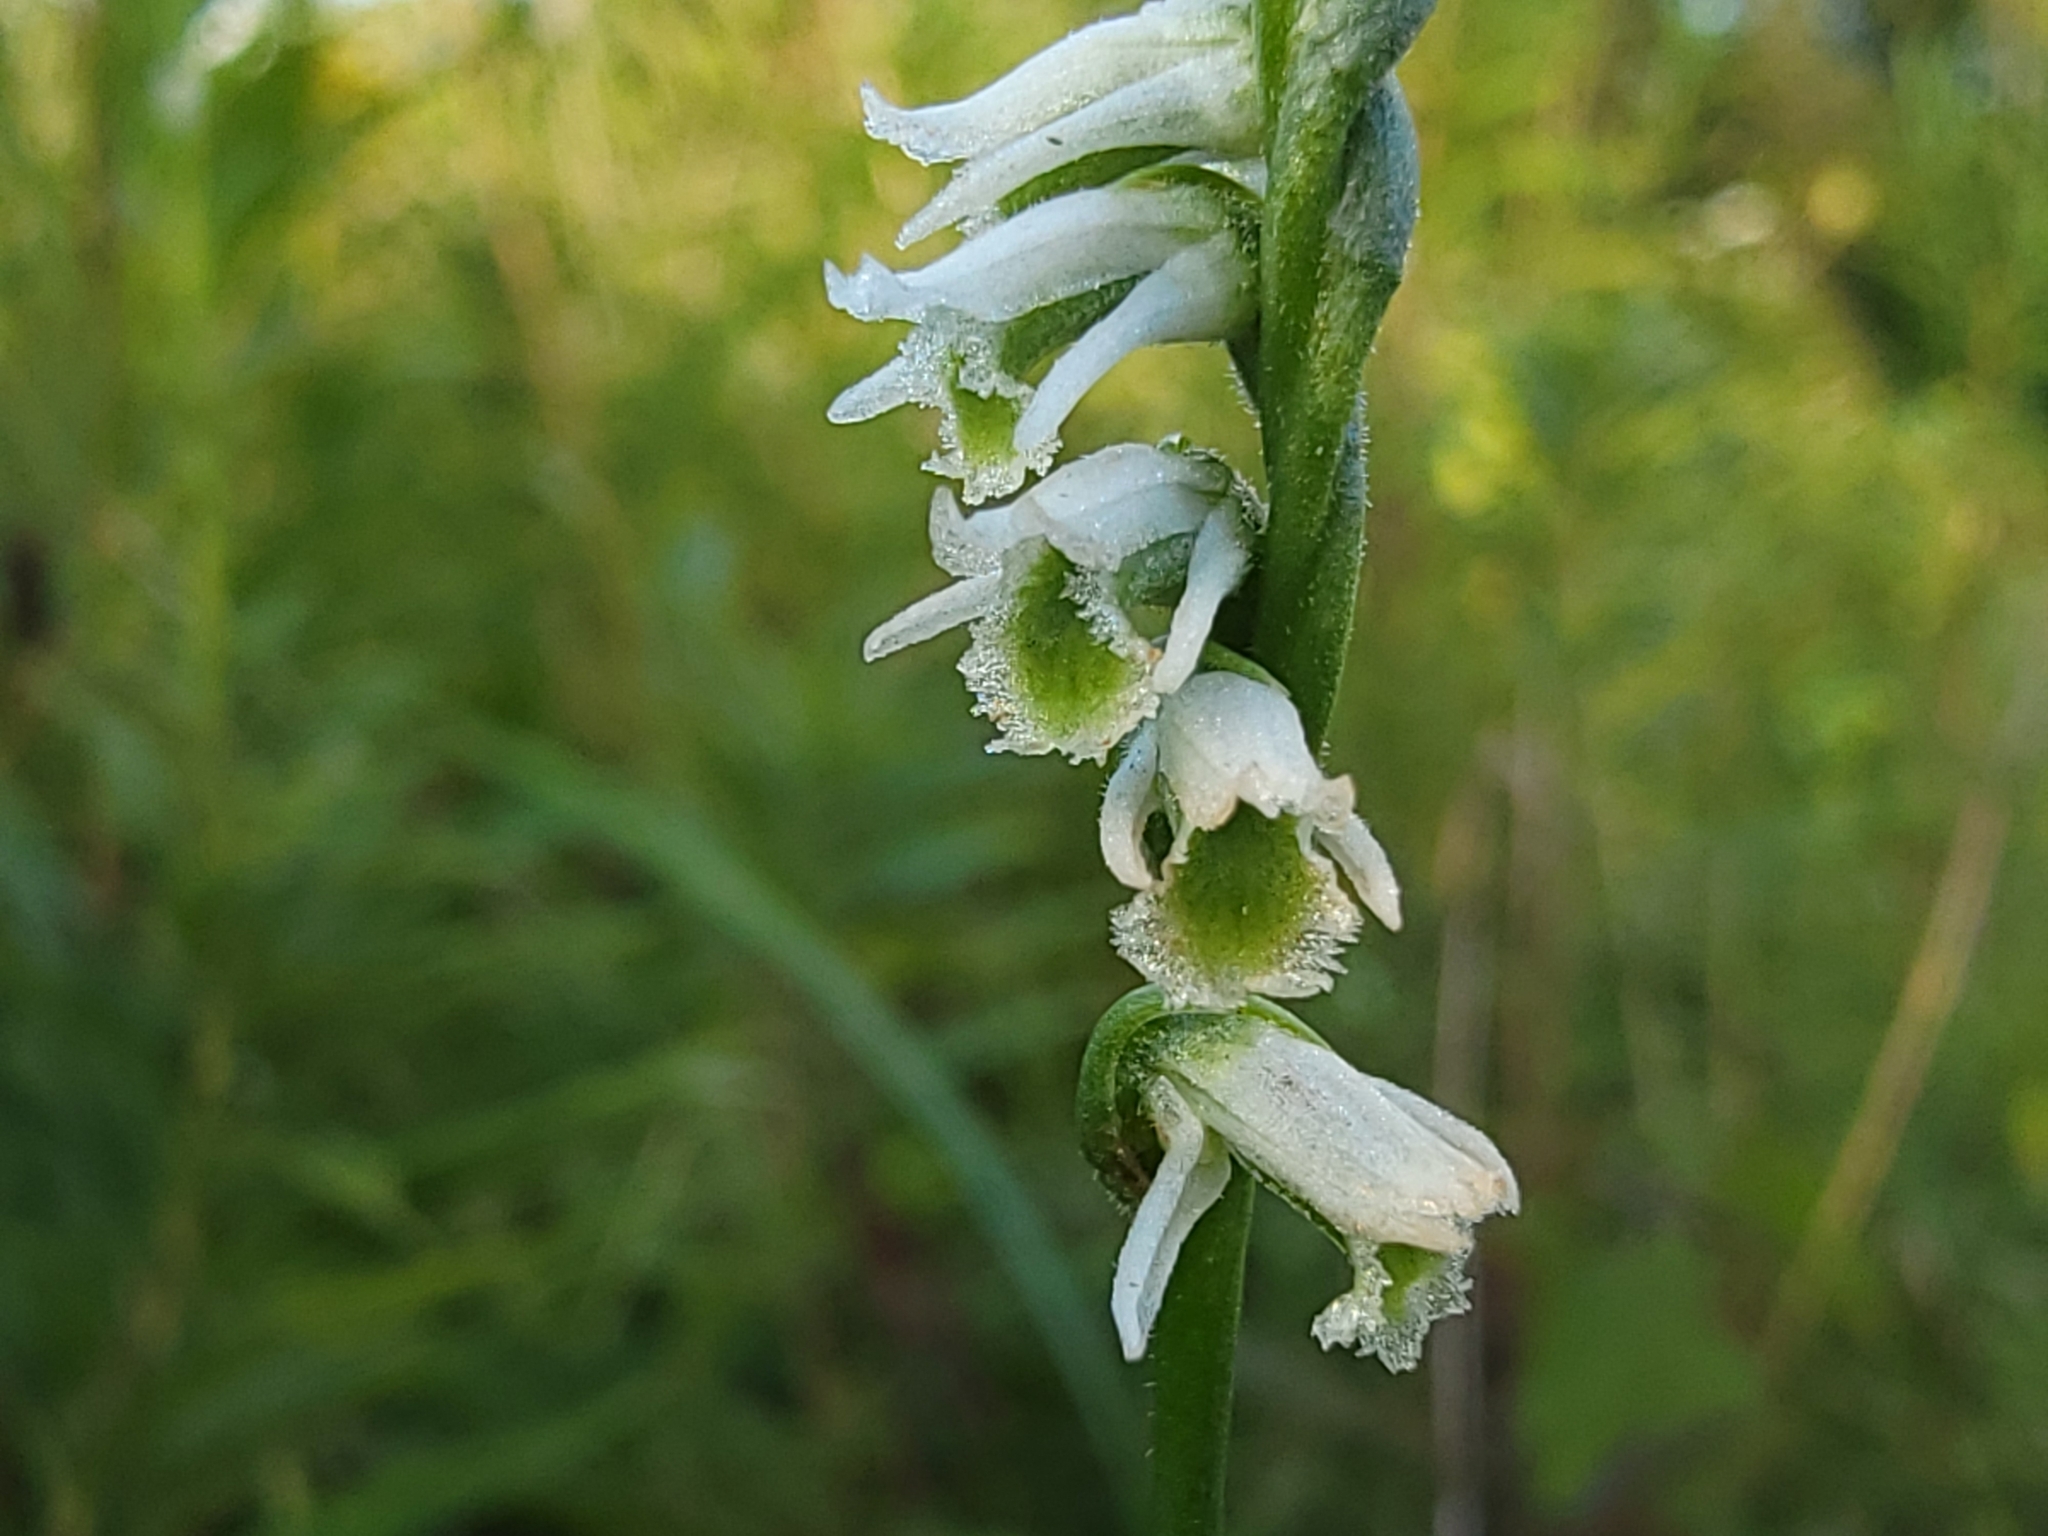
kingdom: Plantae
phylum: Tracheophyta
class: Liliopsida
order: Asparagales
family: Orchidaceae
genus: Spiranthes
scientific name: Spiranthes lacera
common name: Northern slender ladies'-tresses
